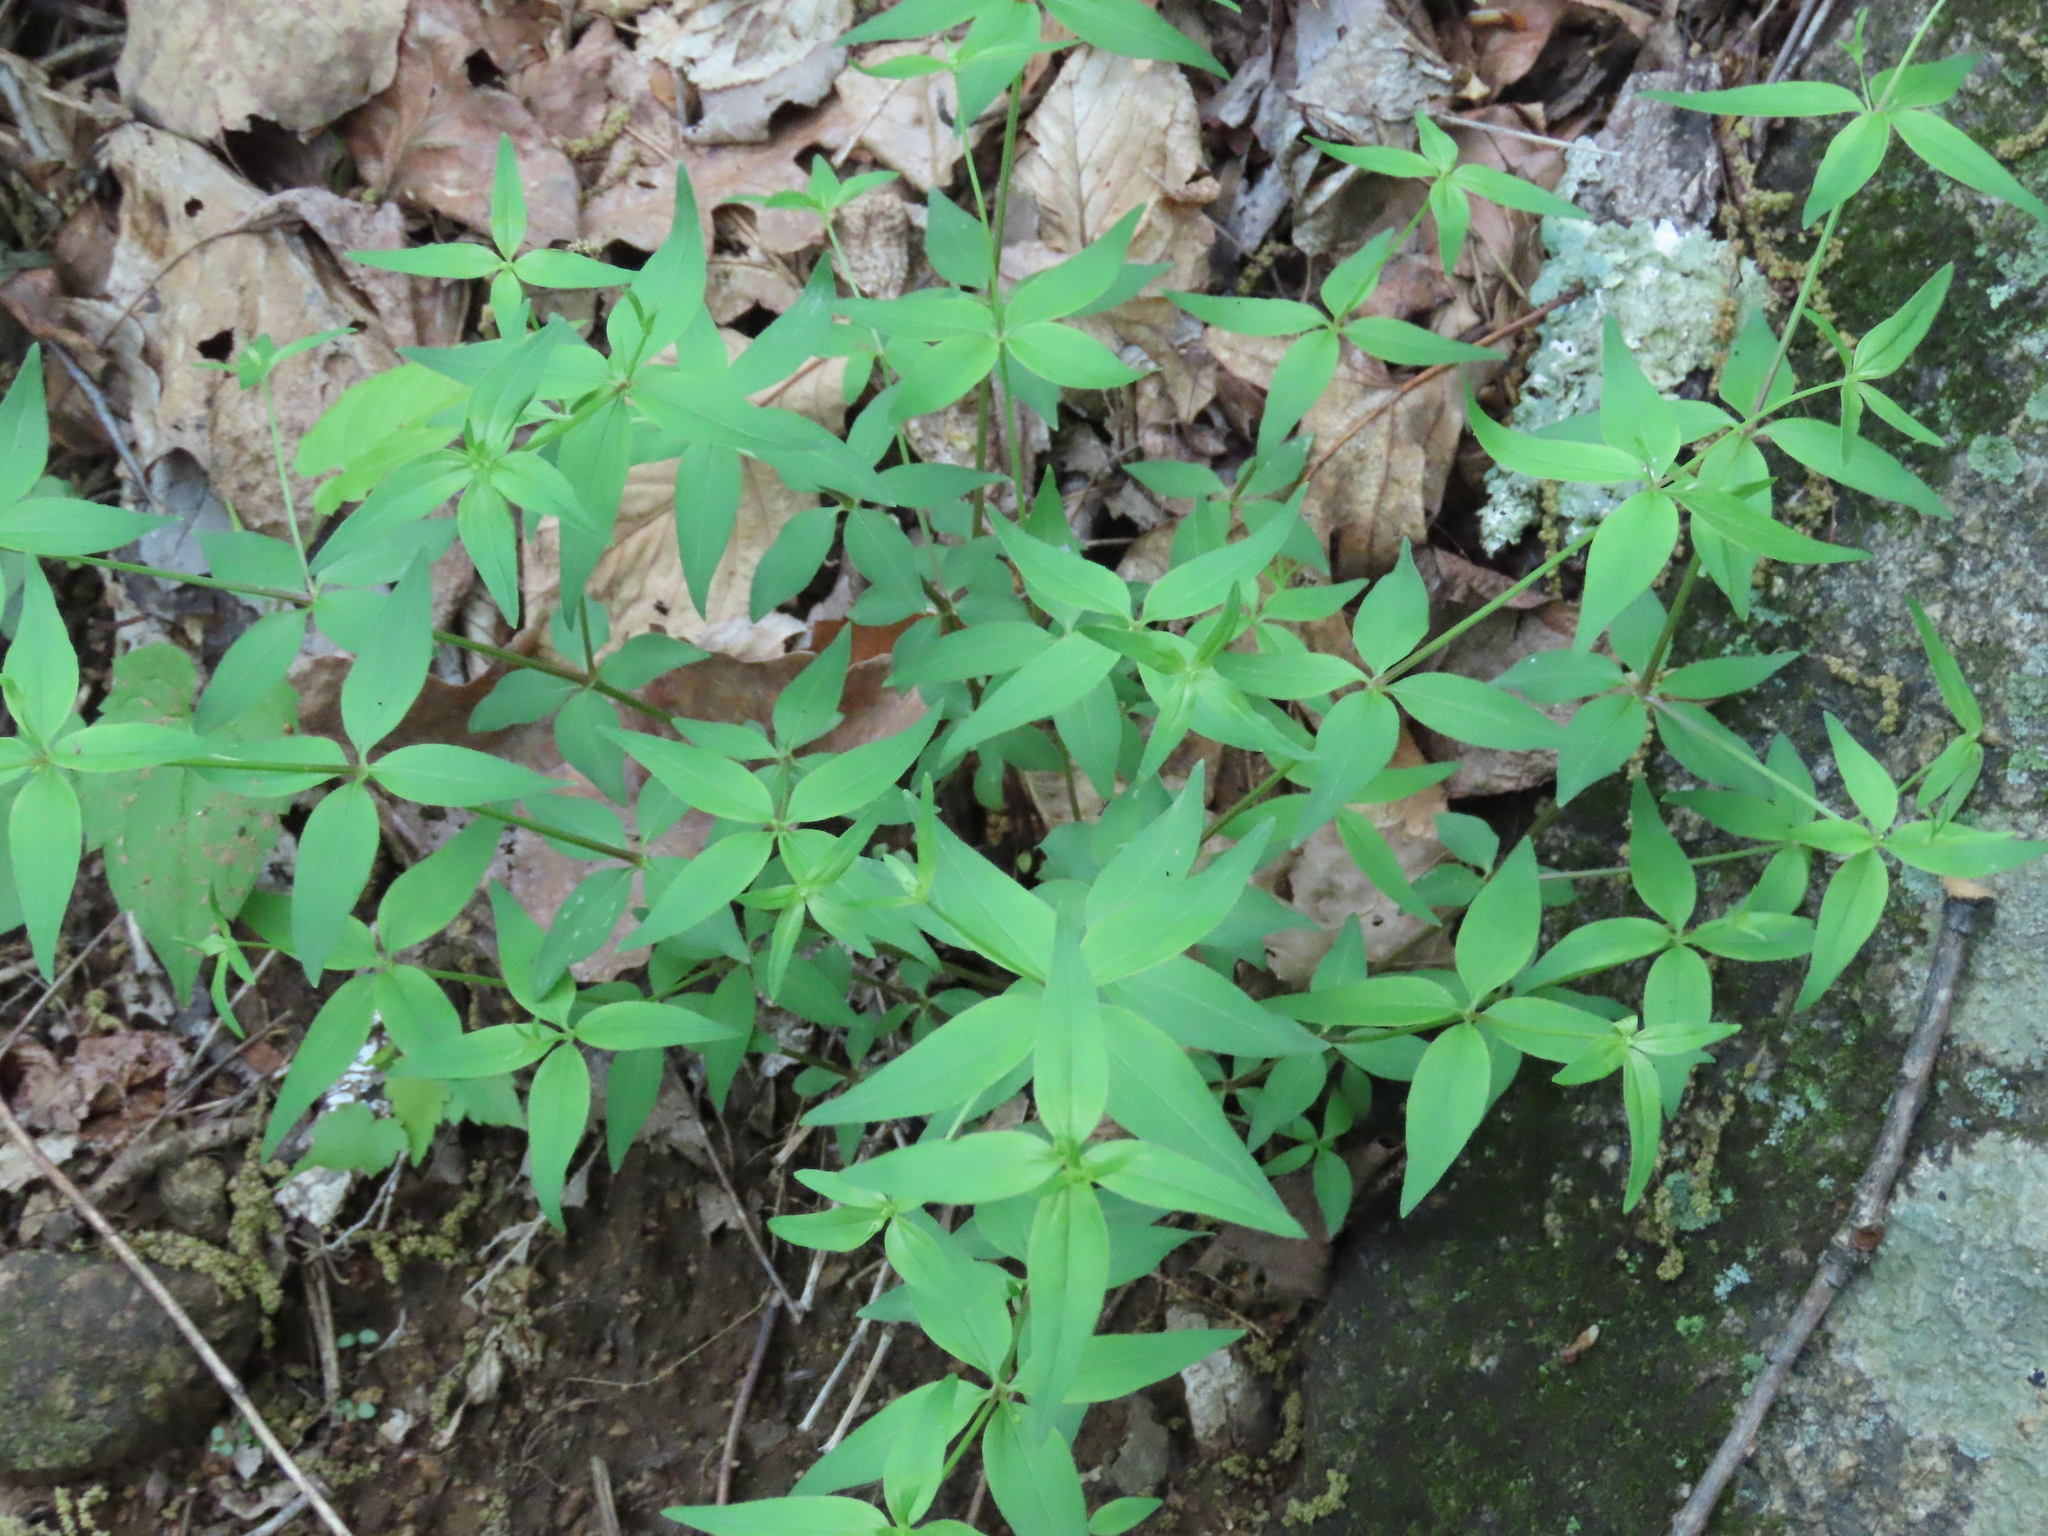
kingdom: Plantae
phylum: Tracheophyta
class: Magnoliopsida
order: Gentianales
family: Rubiaceae
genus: Galium
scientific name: Galium lanceolatum
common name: Lance-leaved wild licorice
